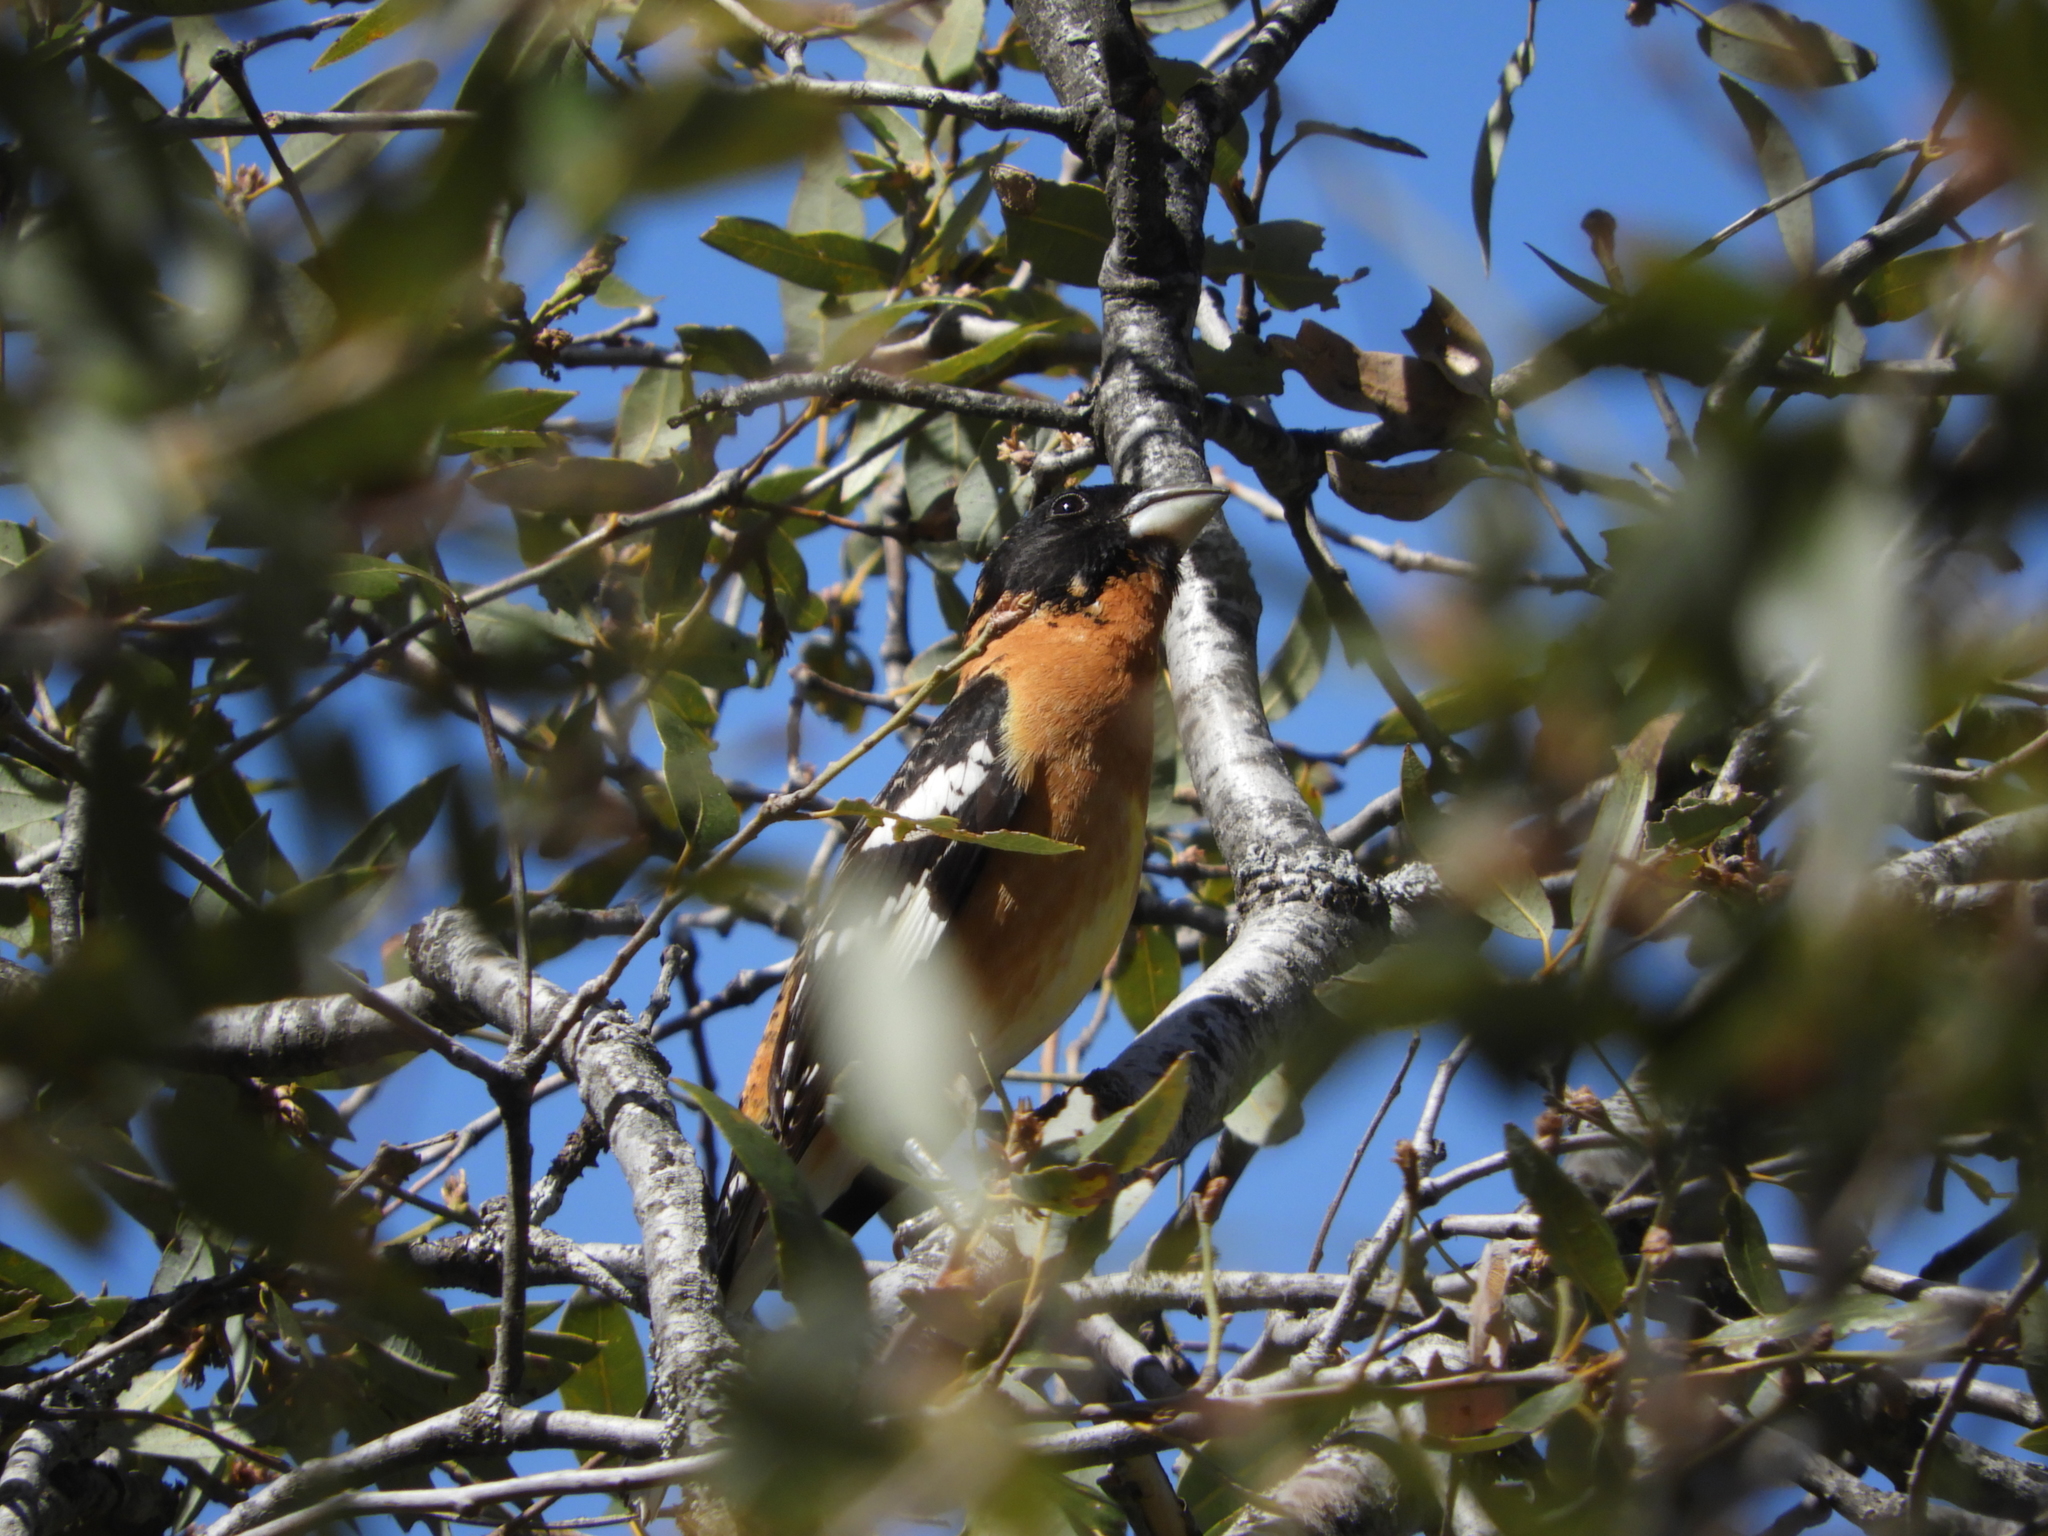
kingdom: Animalia
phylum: Chordata
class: Aves
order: Passeriformes
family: Cardinalidae
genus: Pheucticus
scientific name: Pheucticus melanocephalus
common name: Black-headed grosbeak
